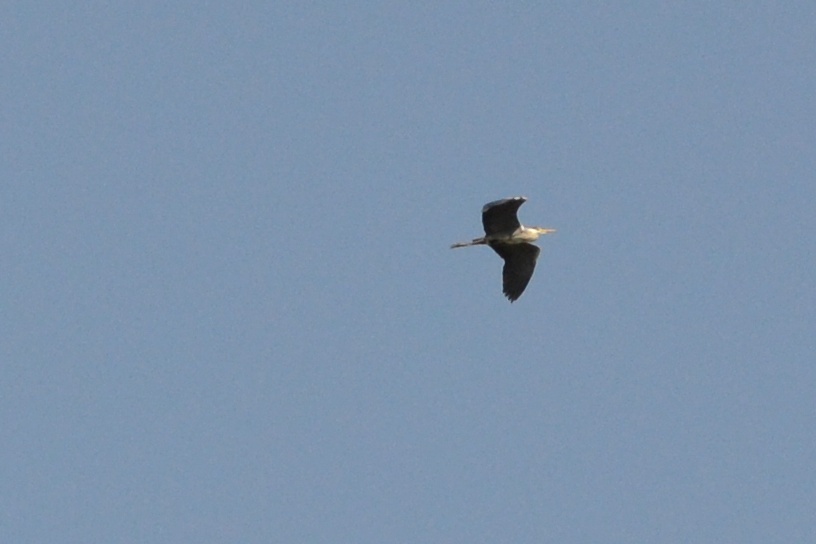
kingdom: Animalia
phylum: Chordata
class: Aves
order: Pelecaniformes
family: Ardeidae
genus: Ardea
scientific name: Ardea cinerea
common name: Grey heron
